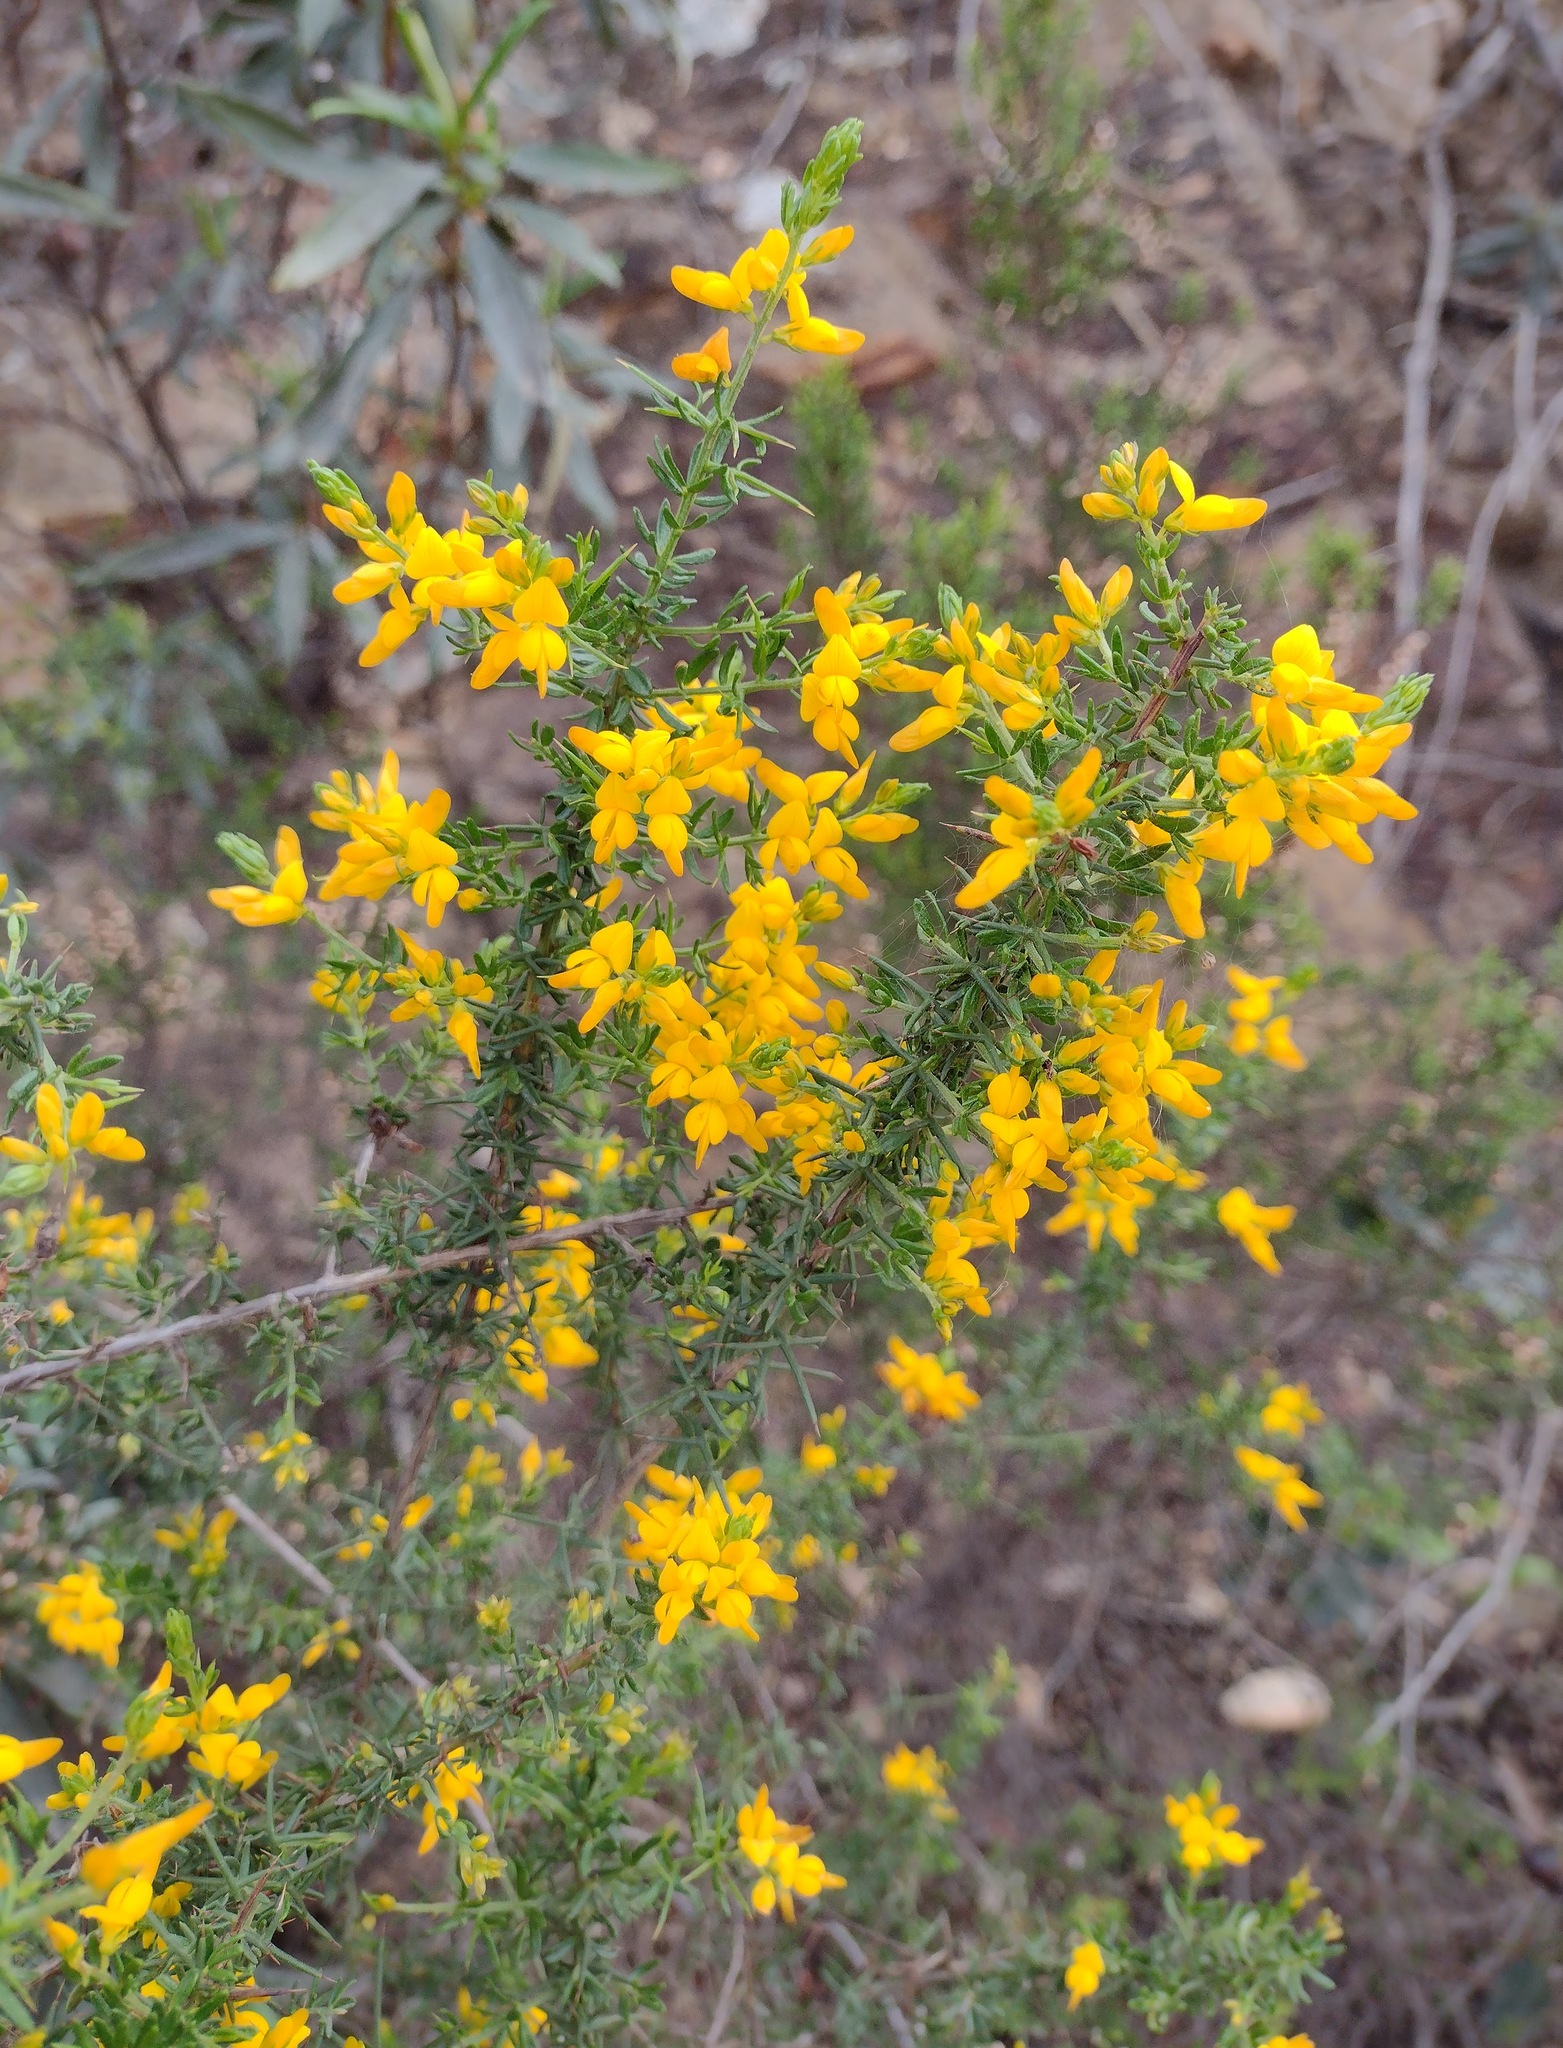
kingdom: Plantae
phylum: Tracheophyta
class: Magnoliopsida
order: Fabales
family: Fabaceae
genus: Genista
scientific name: Genista triacanthos
